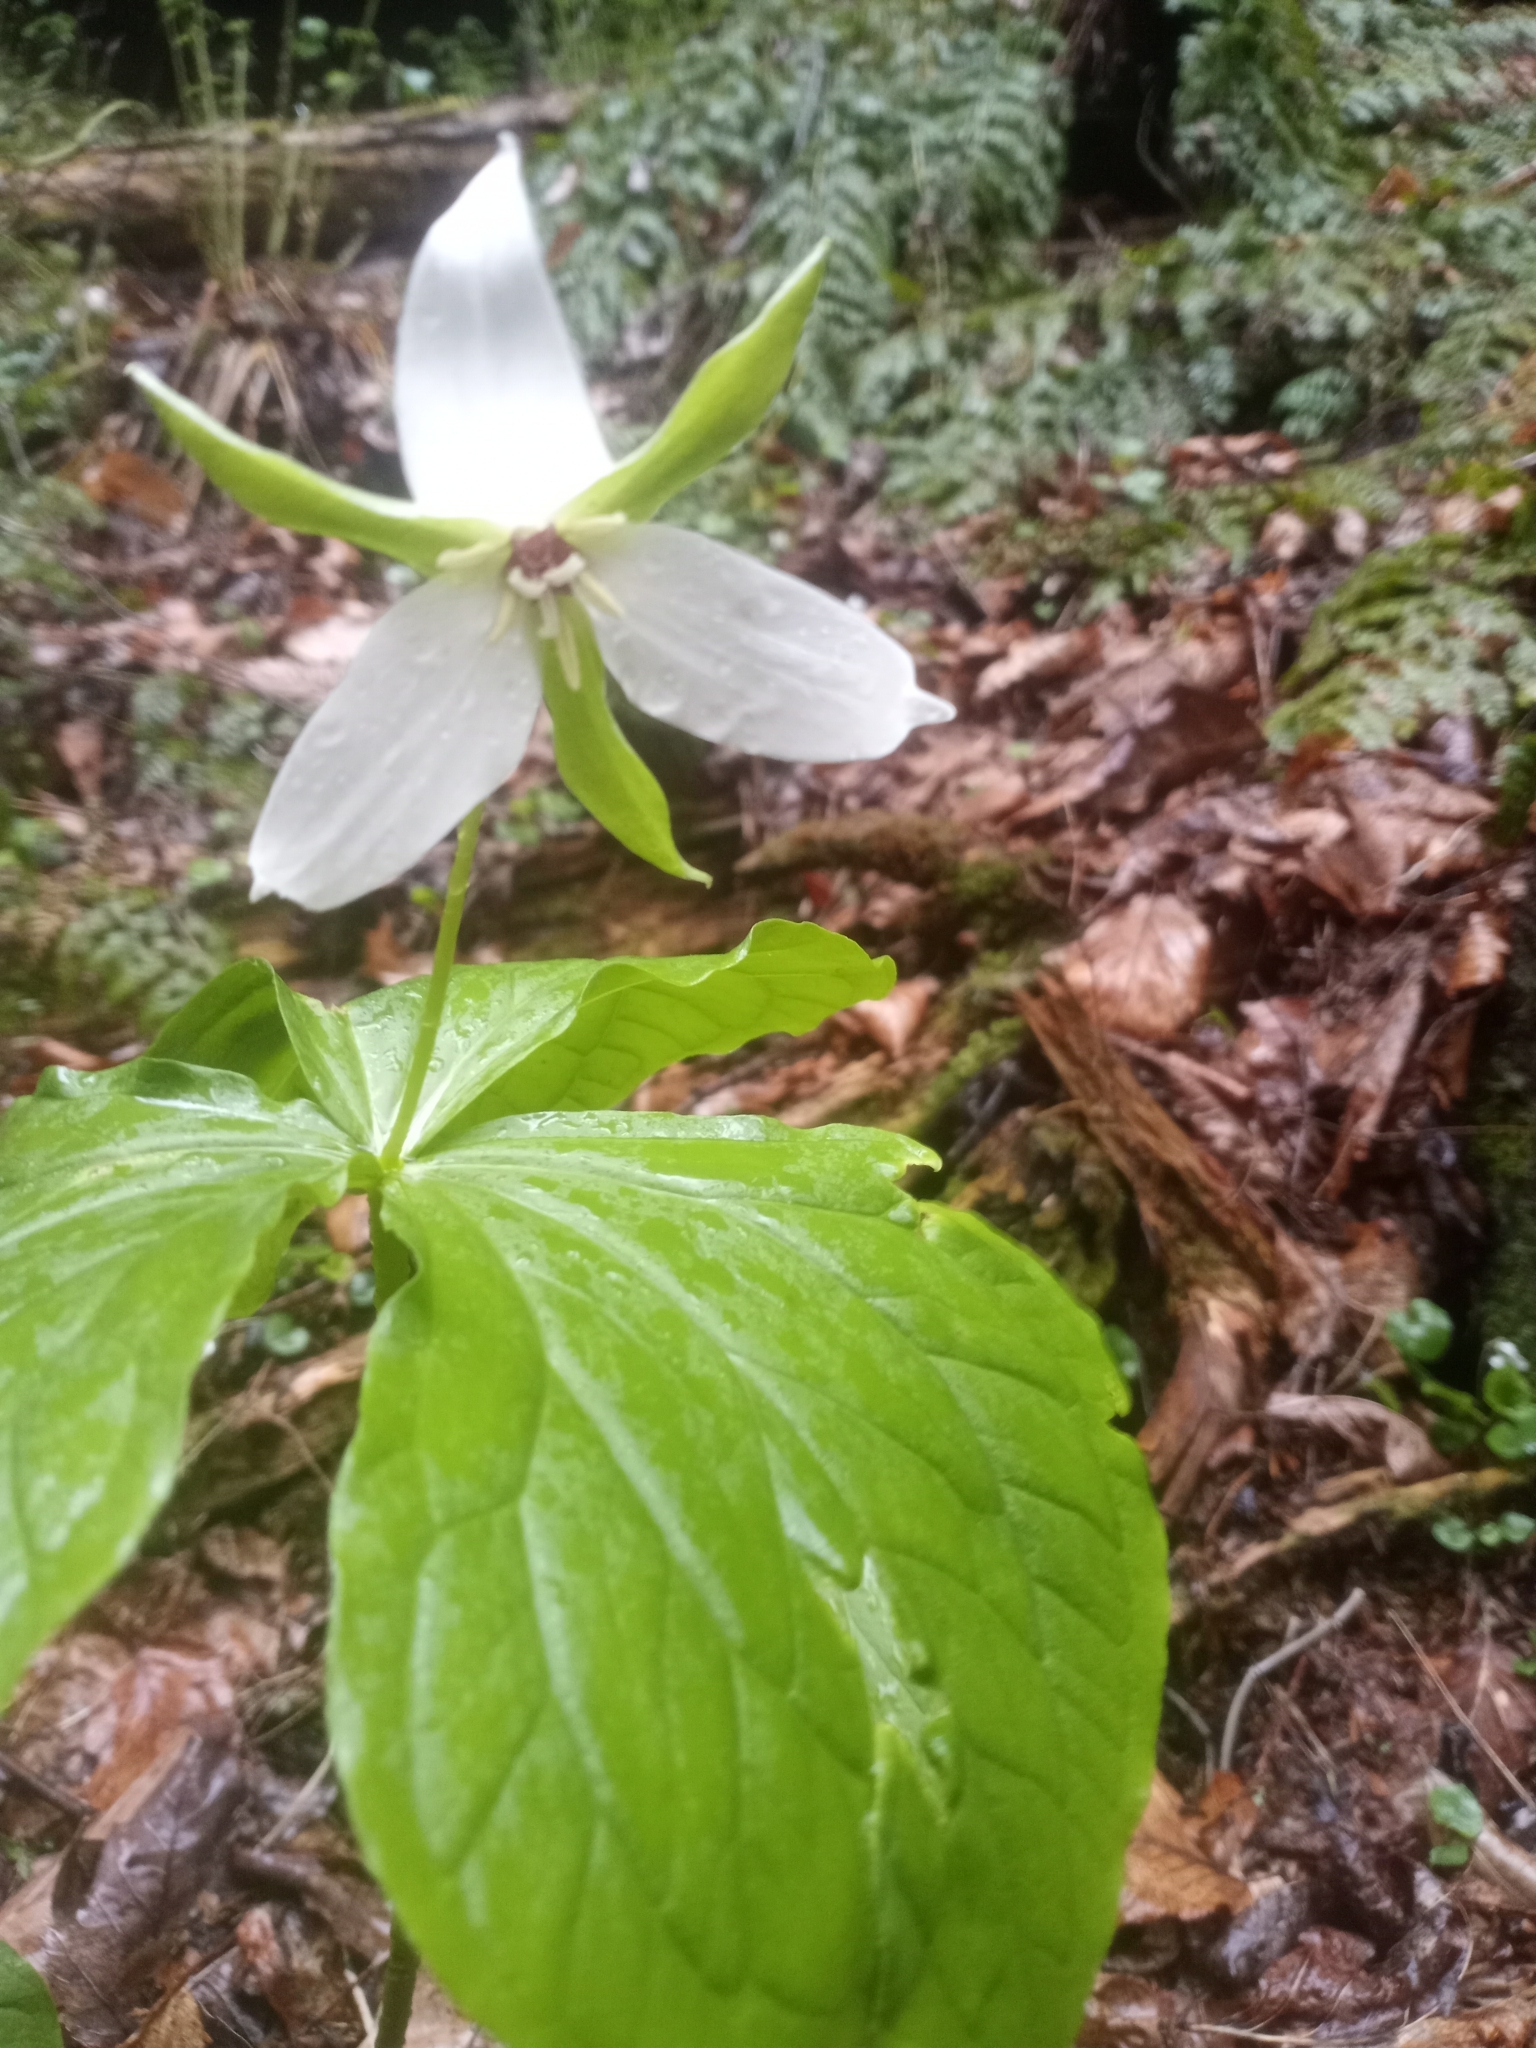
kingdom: Plantae
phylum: Tracheophyta
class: Liliopsida
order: Liliales
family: Melanthiaceae
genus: Trillium
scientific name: Trillium erectum
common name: Purple trillium
